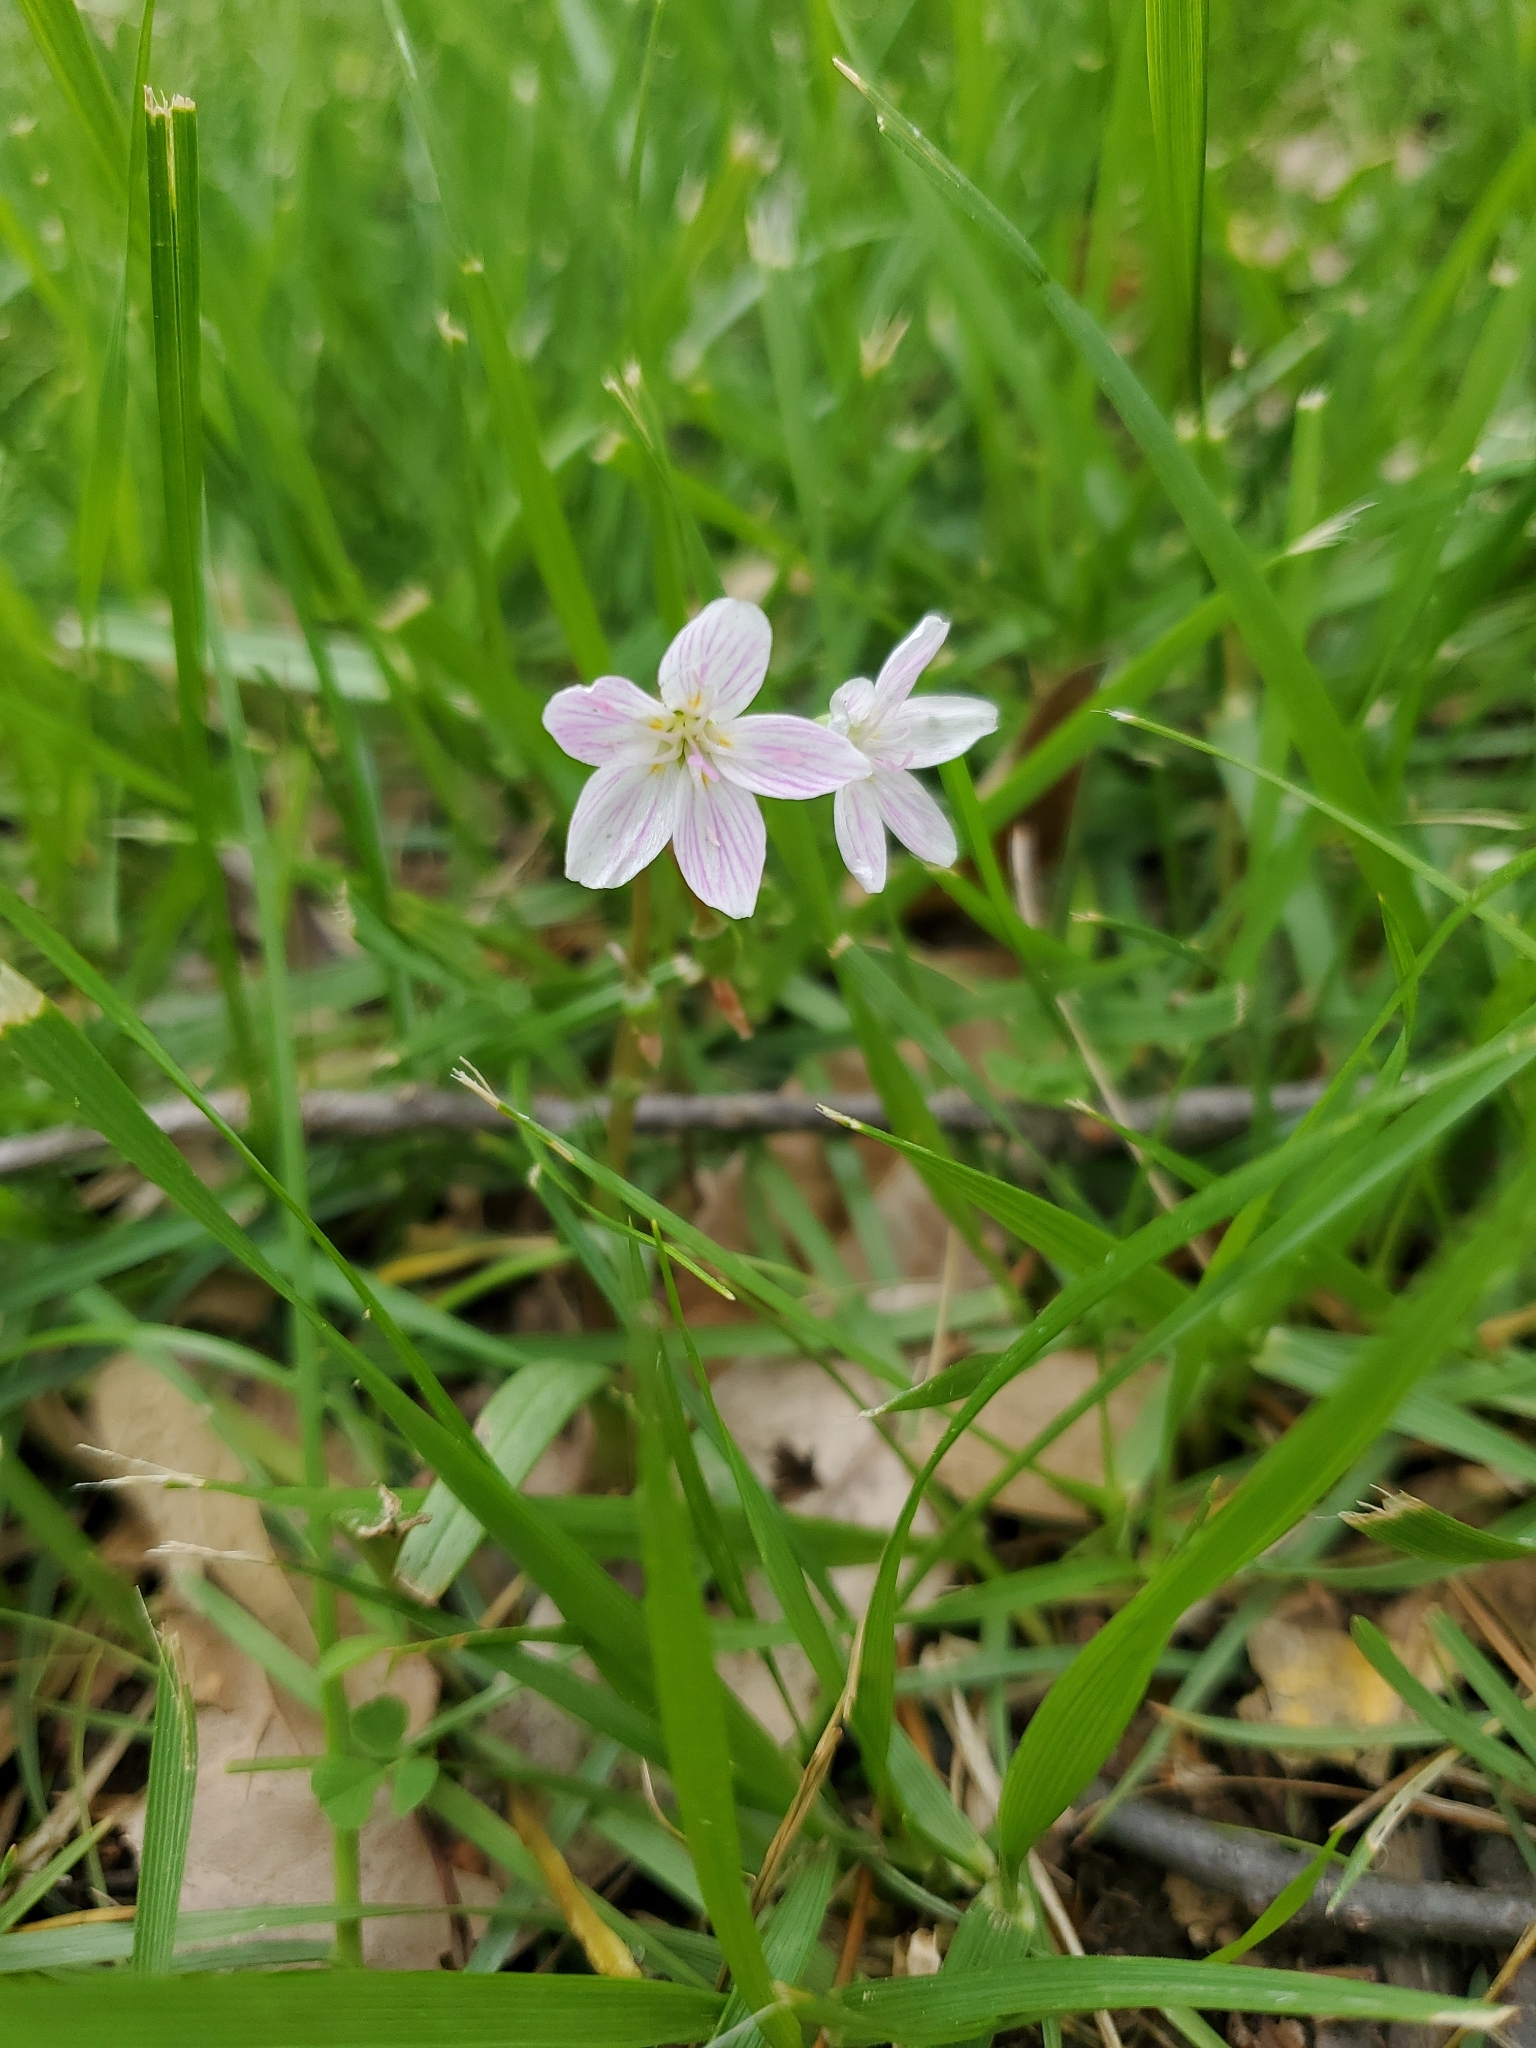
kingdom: Plantae
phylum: Tracheophyta
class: Magnoliopsida
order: Caryophyllales
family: Montiaceae
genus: Claytonia
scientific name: Claytonia virginica
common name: Virginia springbeauty
